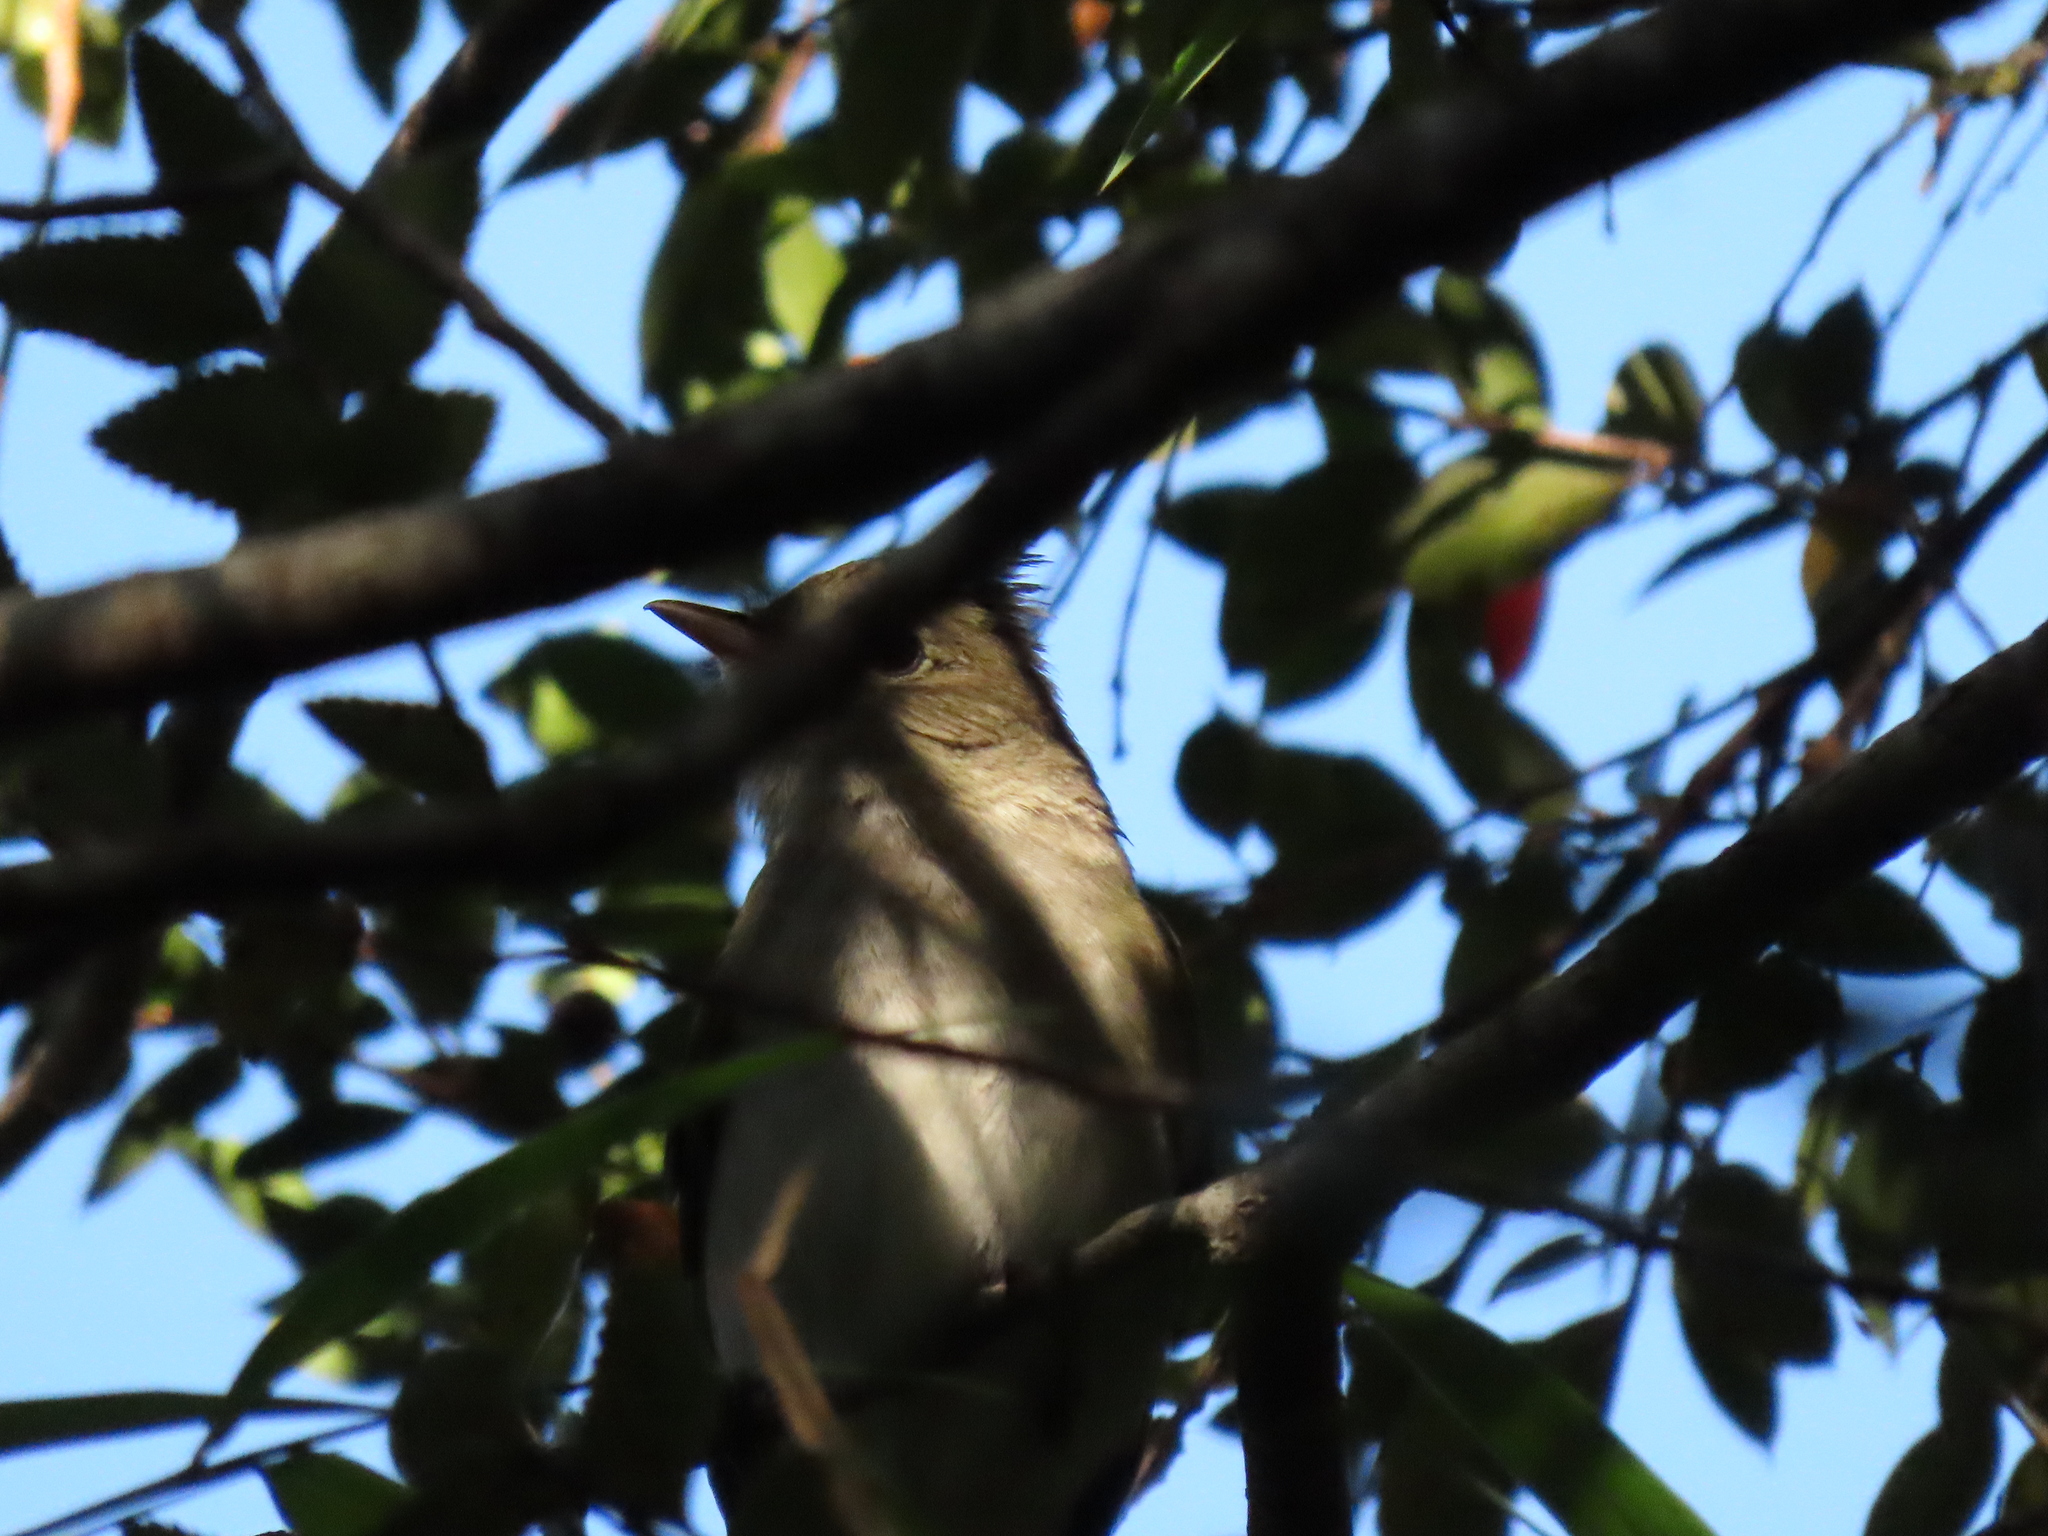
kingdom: Animalia
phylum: Chordata
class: Aves
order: Passeriformes
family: Tyrannidae
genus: Elaenia
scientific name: Elaenia albiceps
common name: White-crested elaenia
